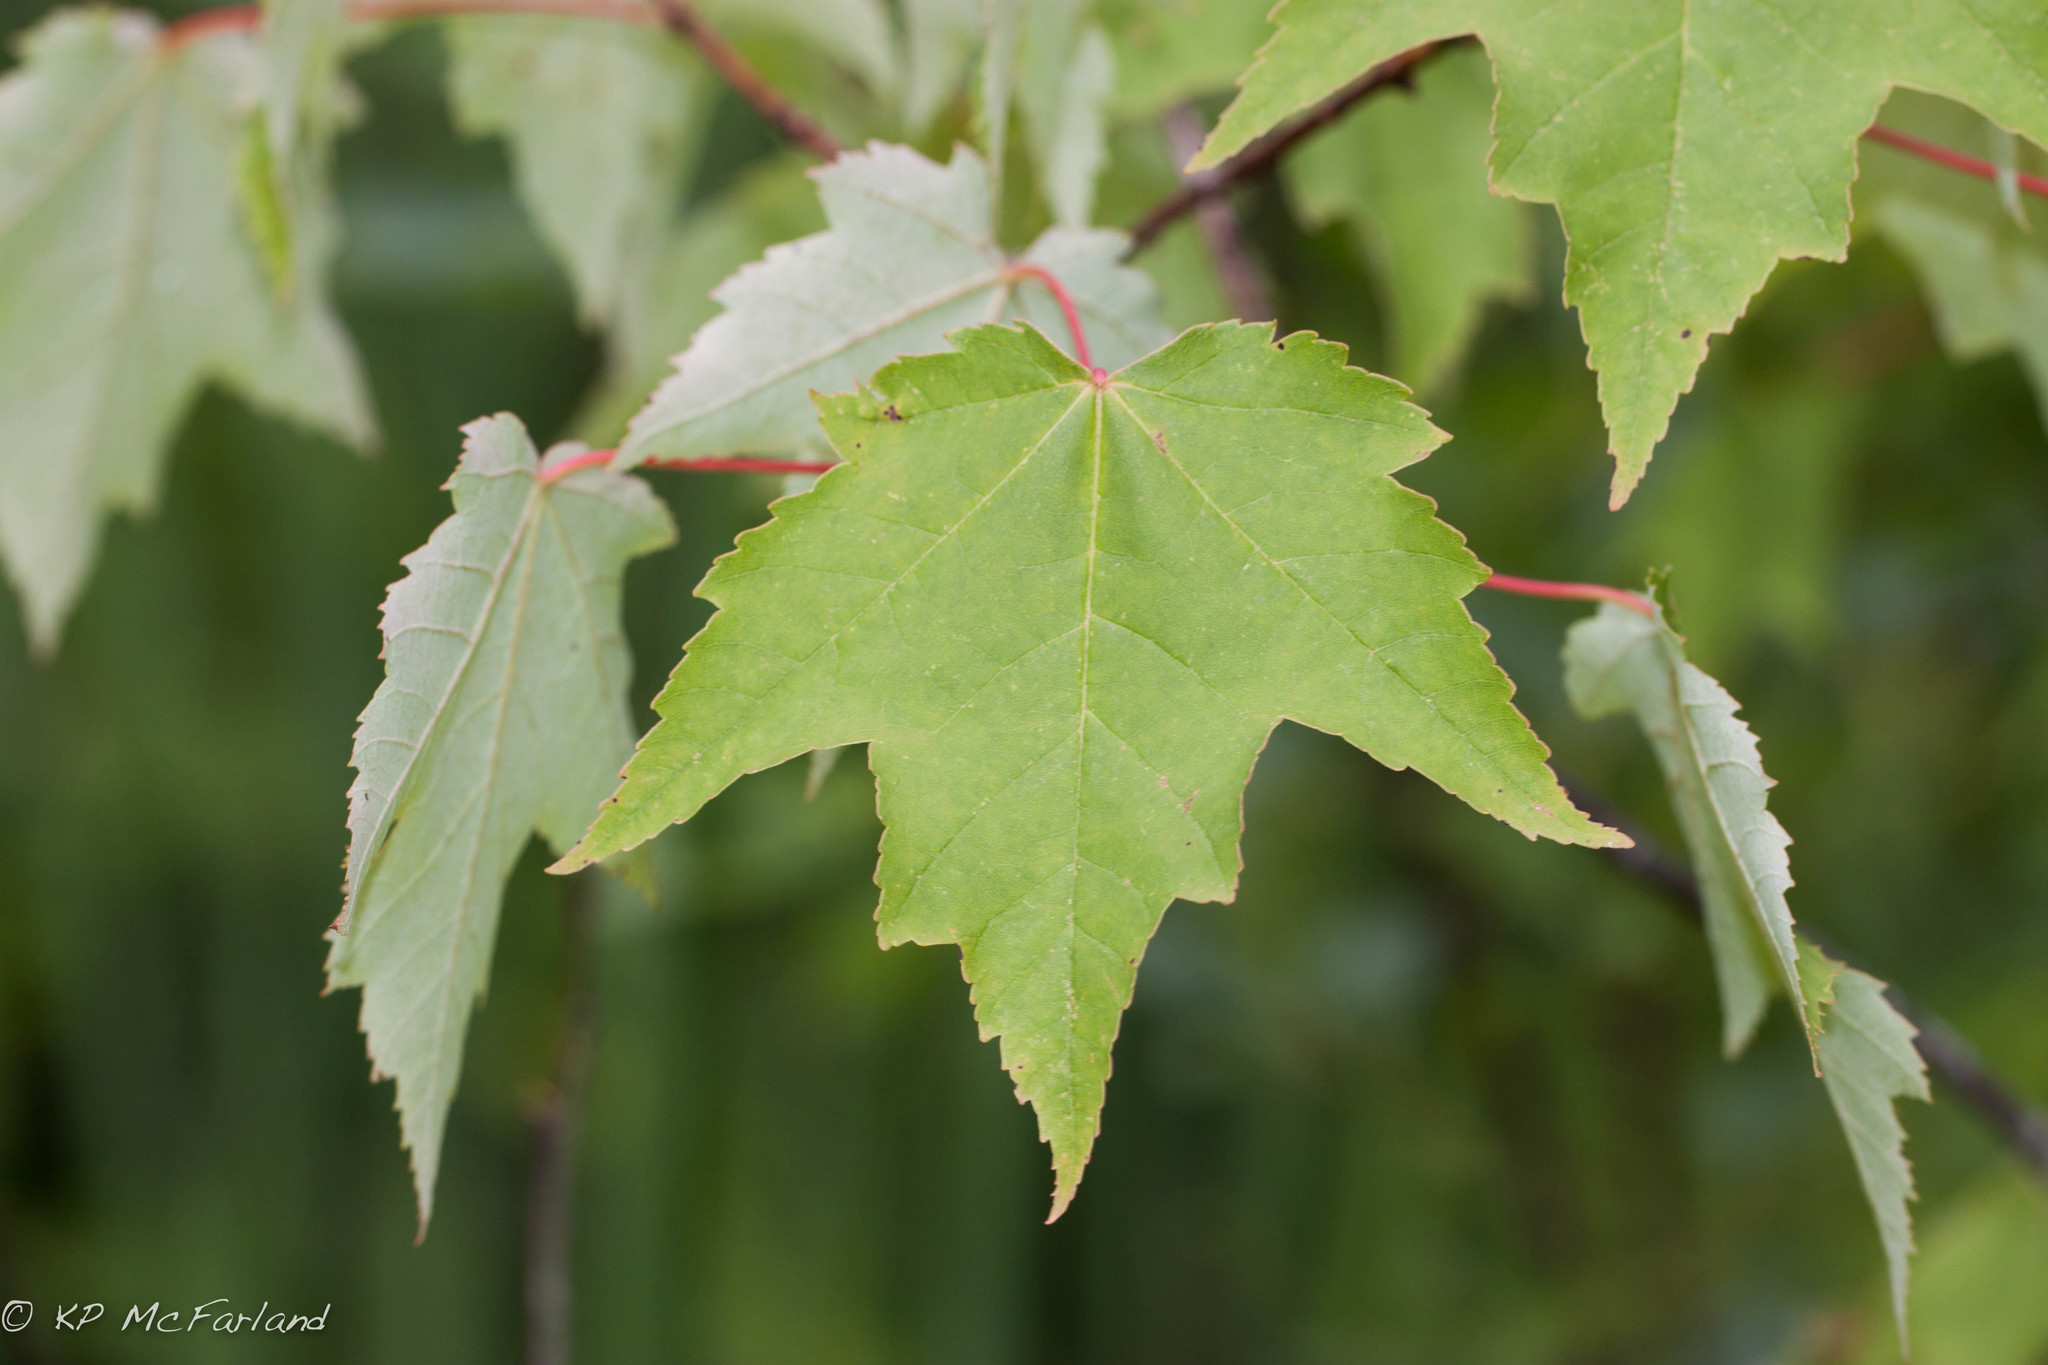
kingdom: Plantae
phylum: Tracheophyta
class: Magnoliopsida
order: Sapindales
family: Sapindaceae
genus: Acer
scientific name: Acer rubrum
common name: Red maple
